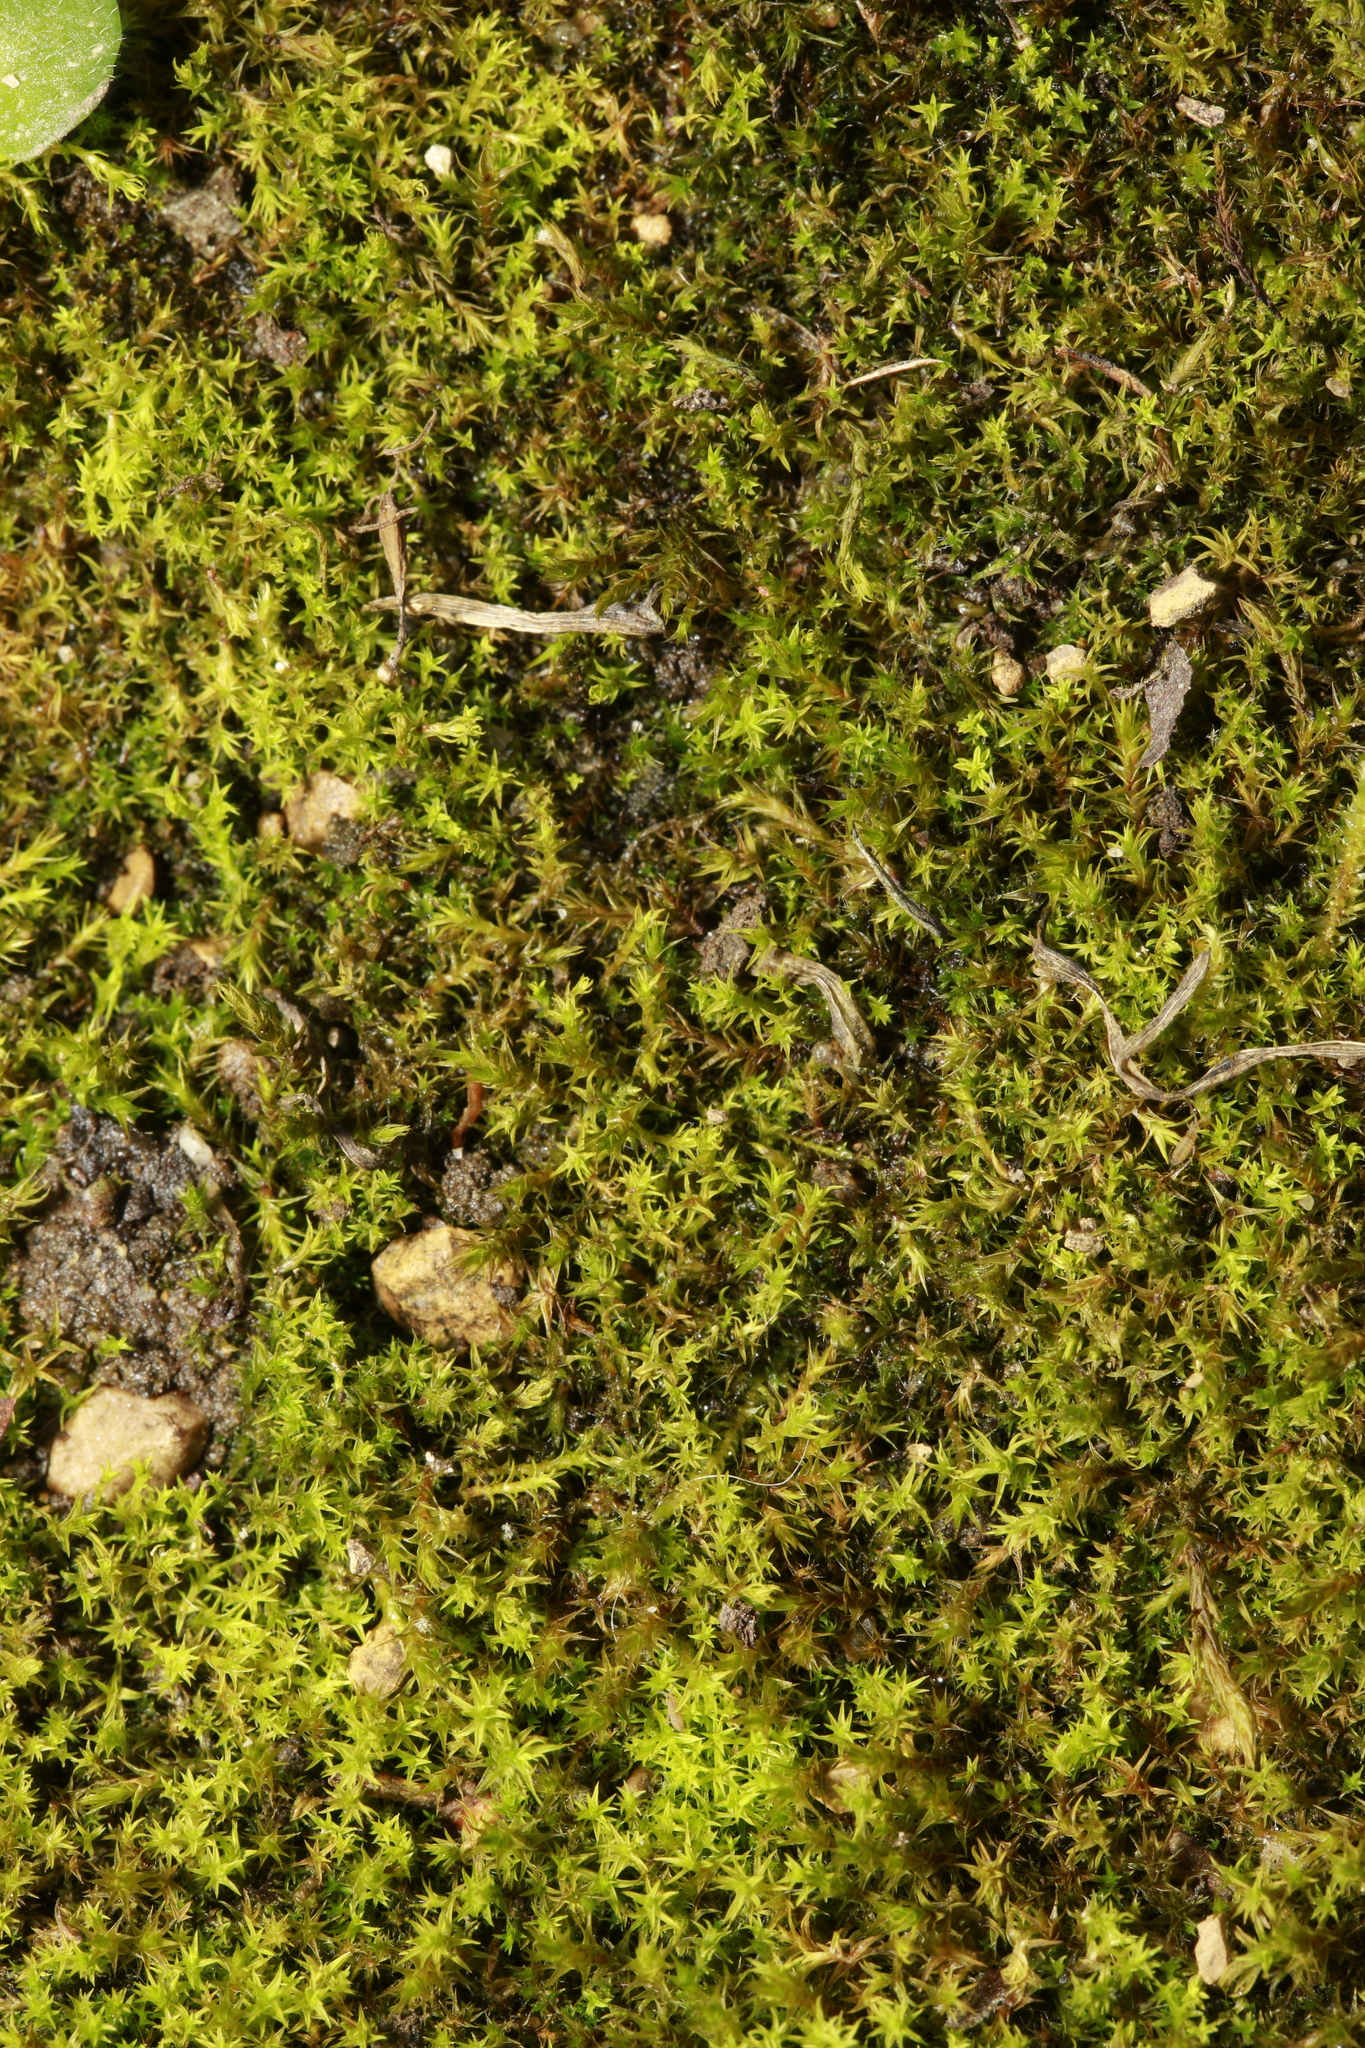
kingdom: Plantae
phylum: Bryophyta
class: Bryopsida
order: Pottiales
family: Pottiaceae
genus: Geheebia
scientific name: Geheebia fallax
